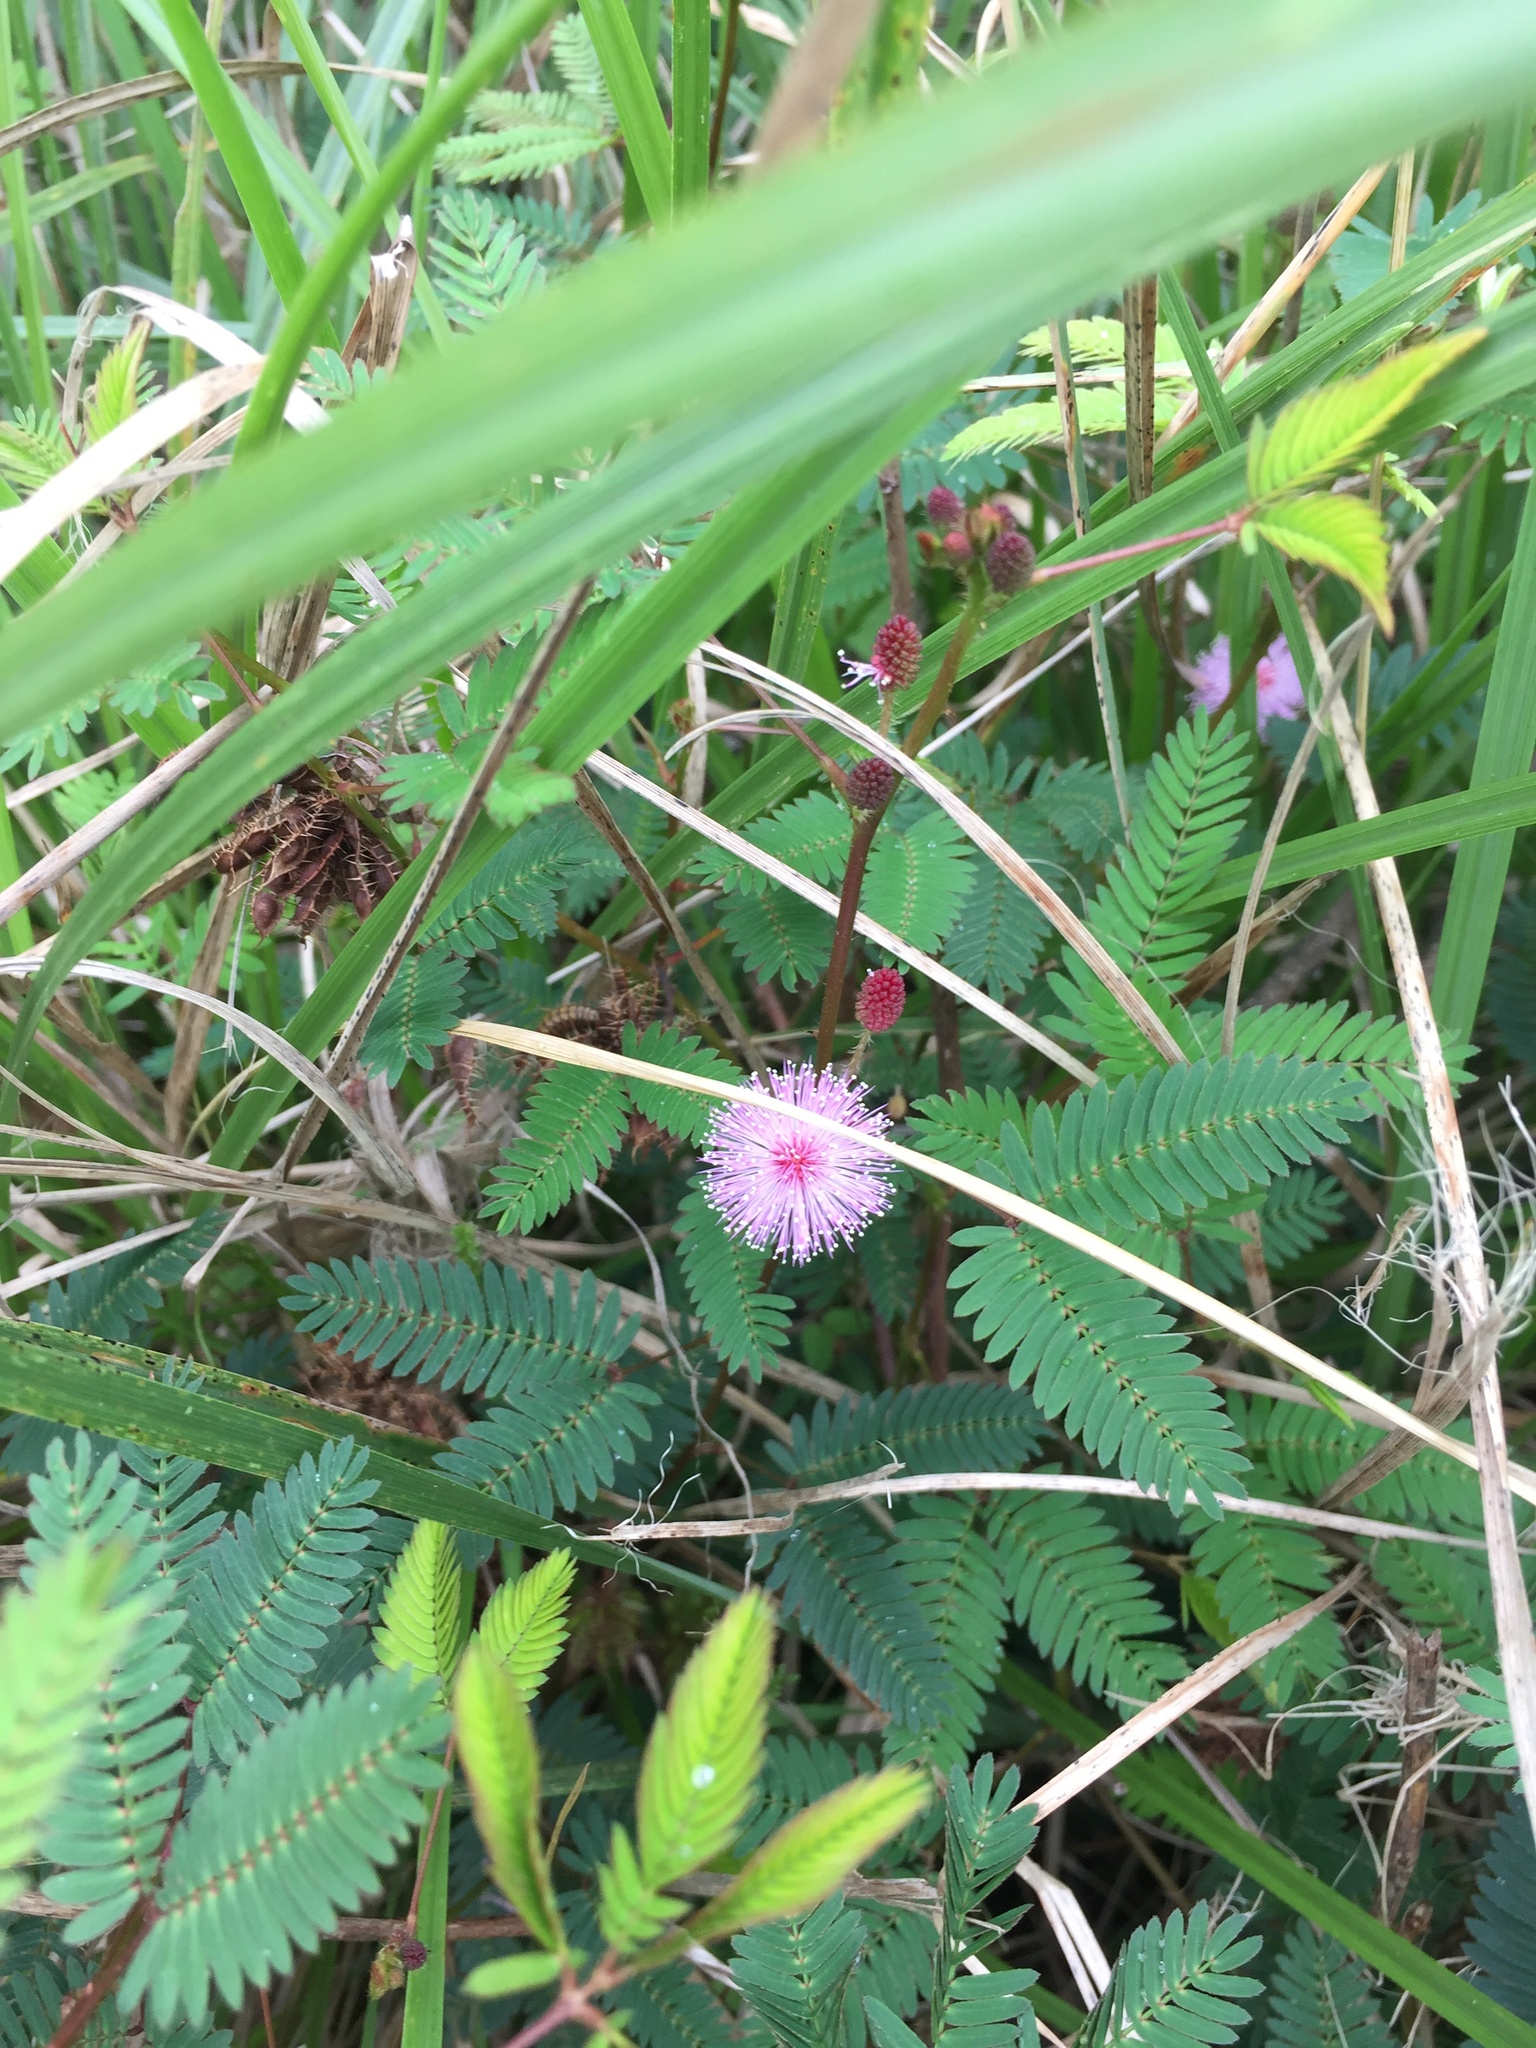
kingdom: Plantae
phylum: Tracheophyta
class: Magnoliopsida
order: Fabales
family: Fabaceae
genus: Mimosa
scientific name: Mimosa pudica
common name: Sensitive plant
